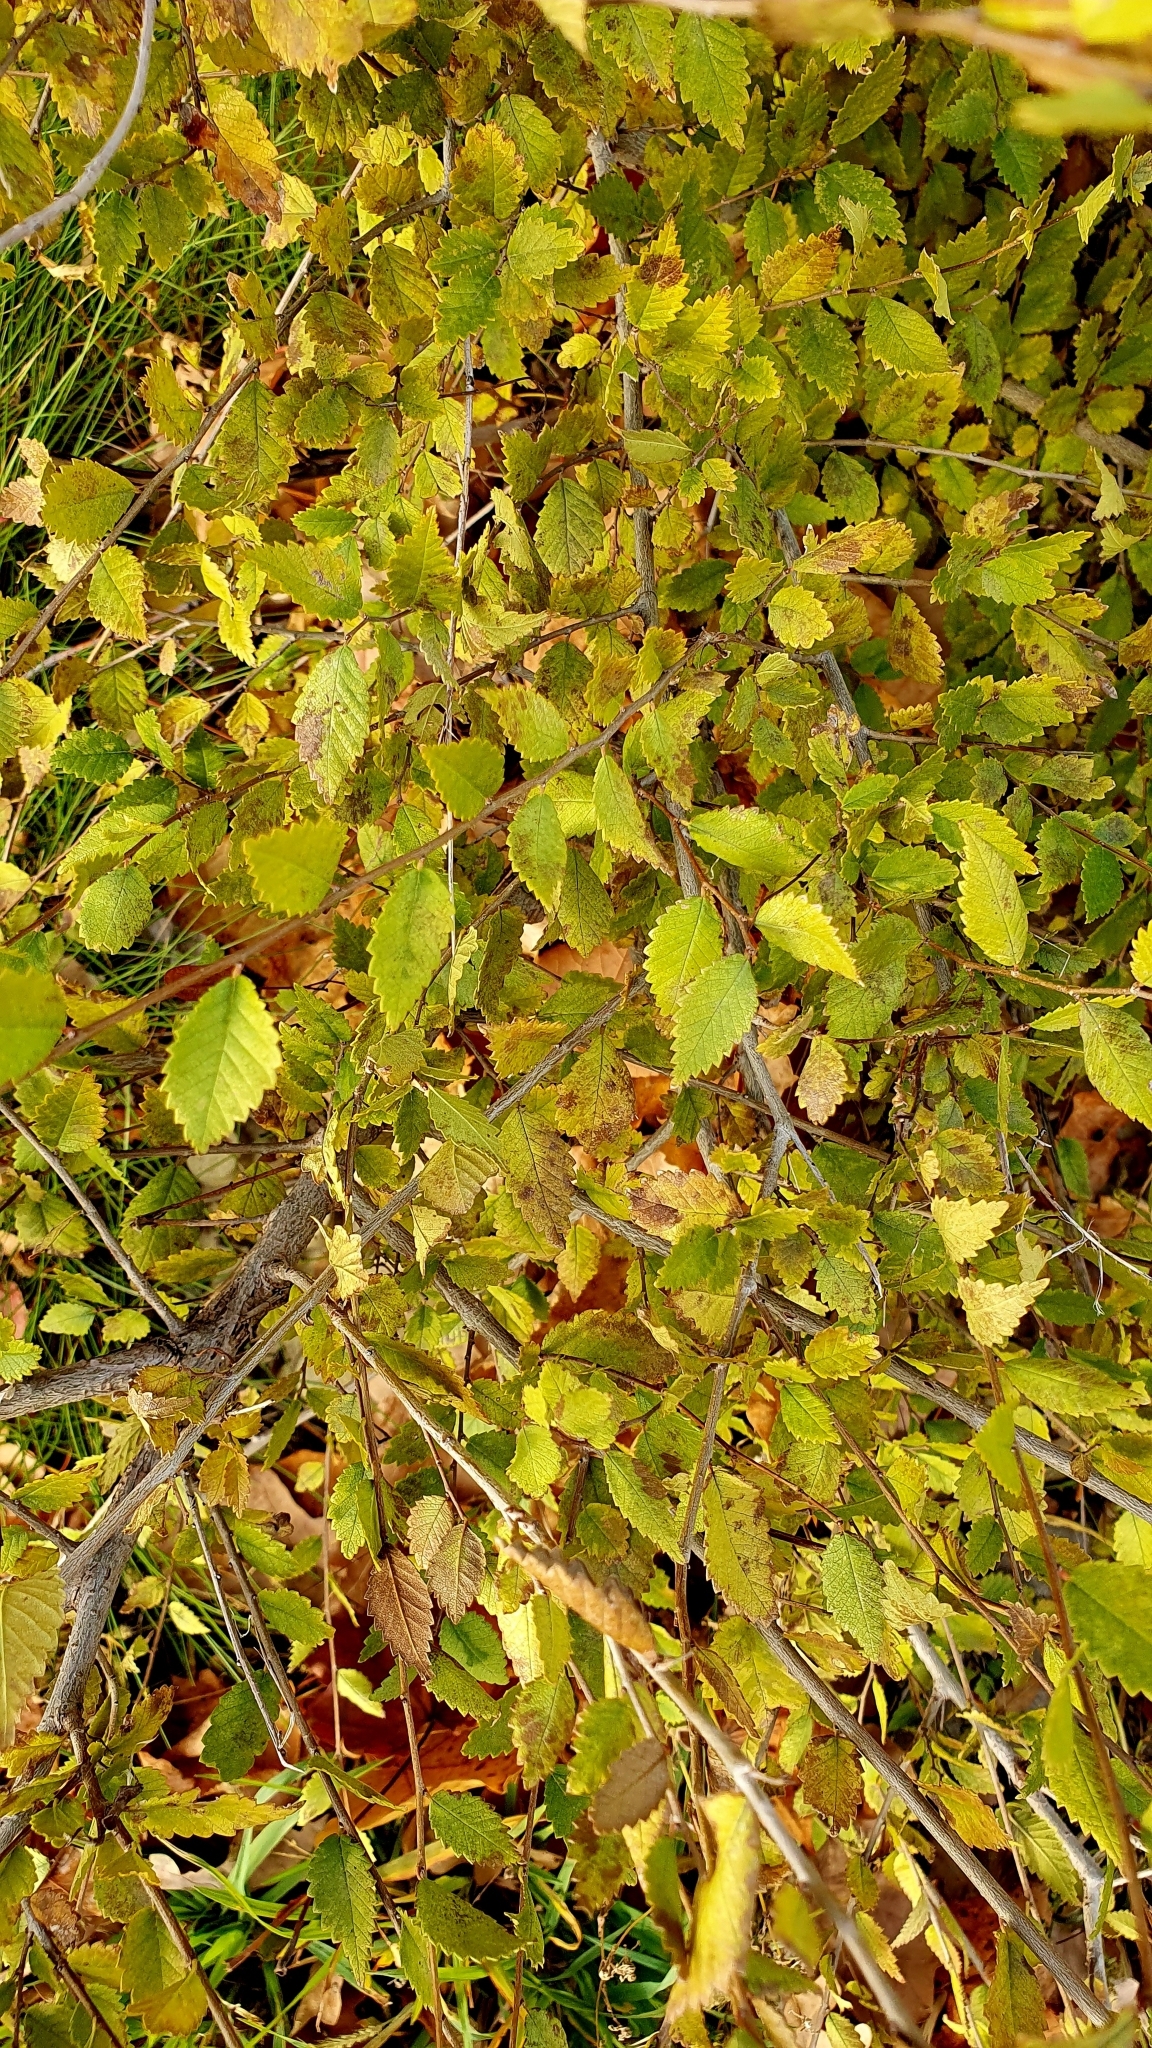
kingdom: Plantae
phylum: Tracheophyta
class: Magnoliopsida
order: Rosales
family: Ulmaceae
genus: Ulmus
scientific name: Ulmus pumila
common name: Siberian elm
